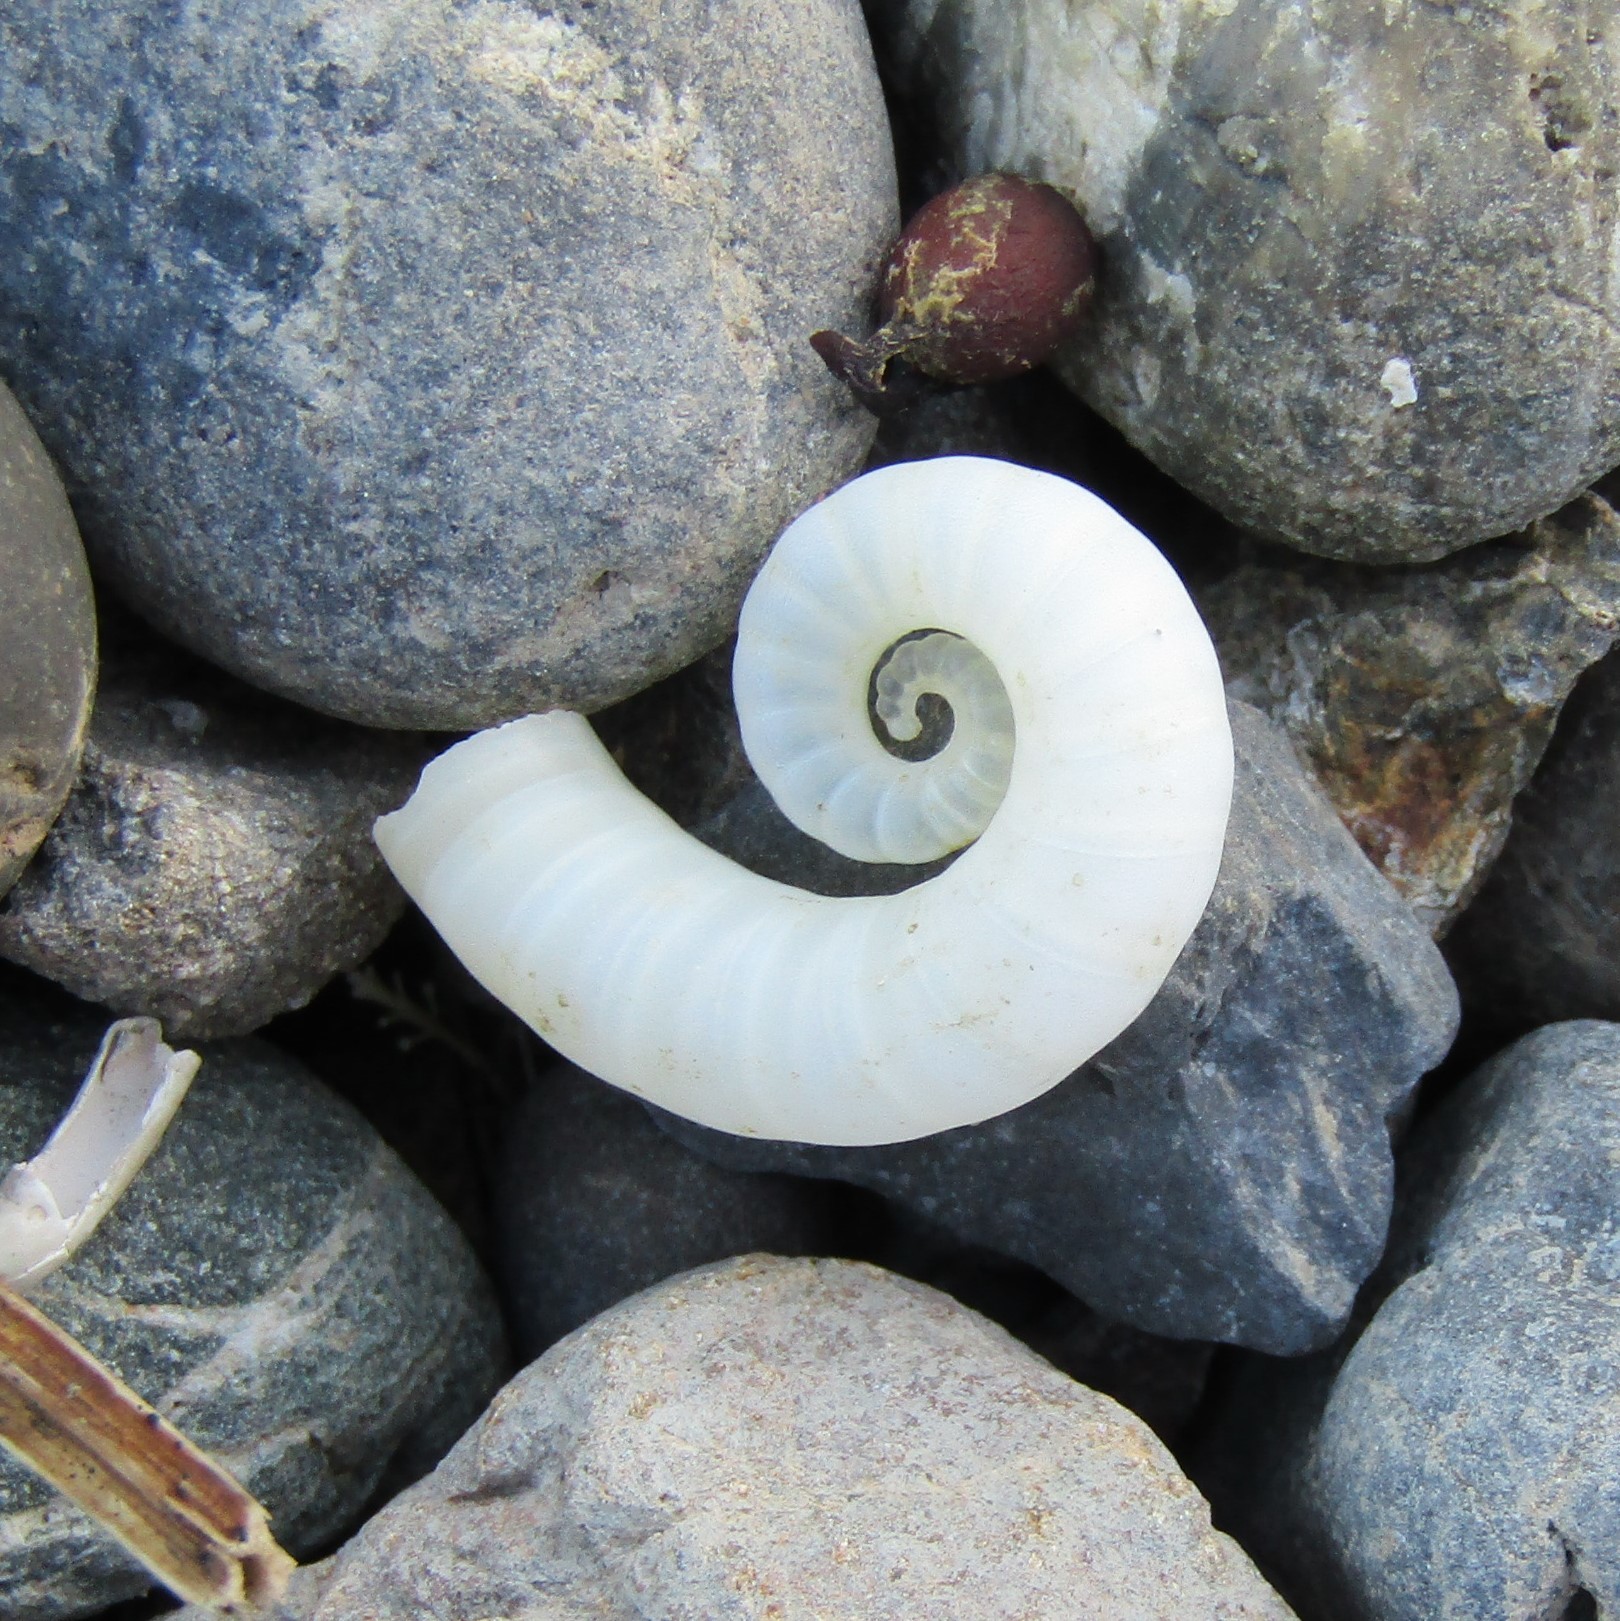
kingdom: Animalia
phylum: Mollusca
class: Cephalopoda
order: Spirulida
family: Spirulidae
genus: Spirula
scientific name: Spirula spirula
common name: Ram's horn squid
